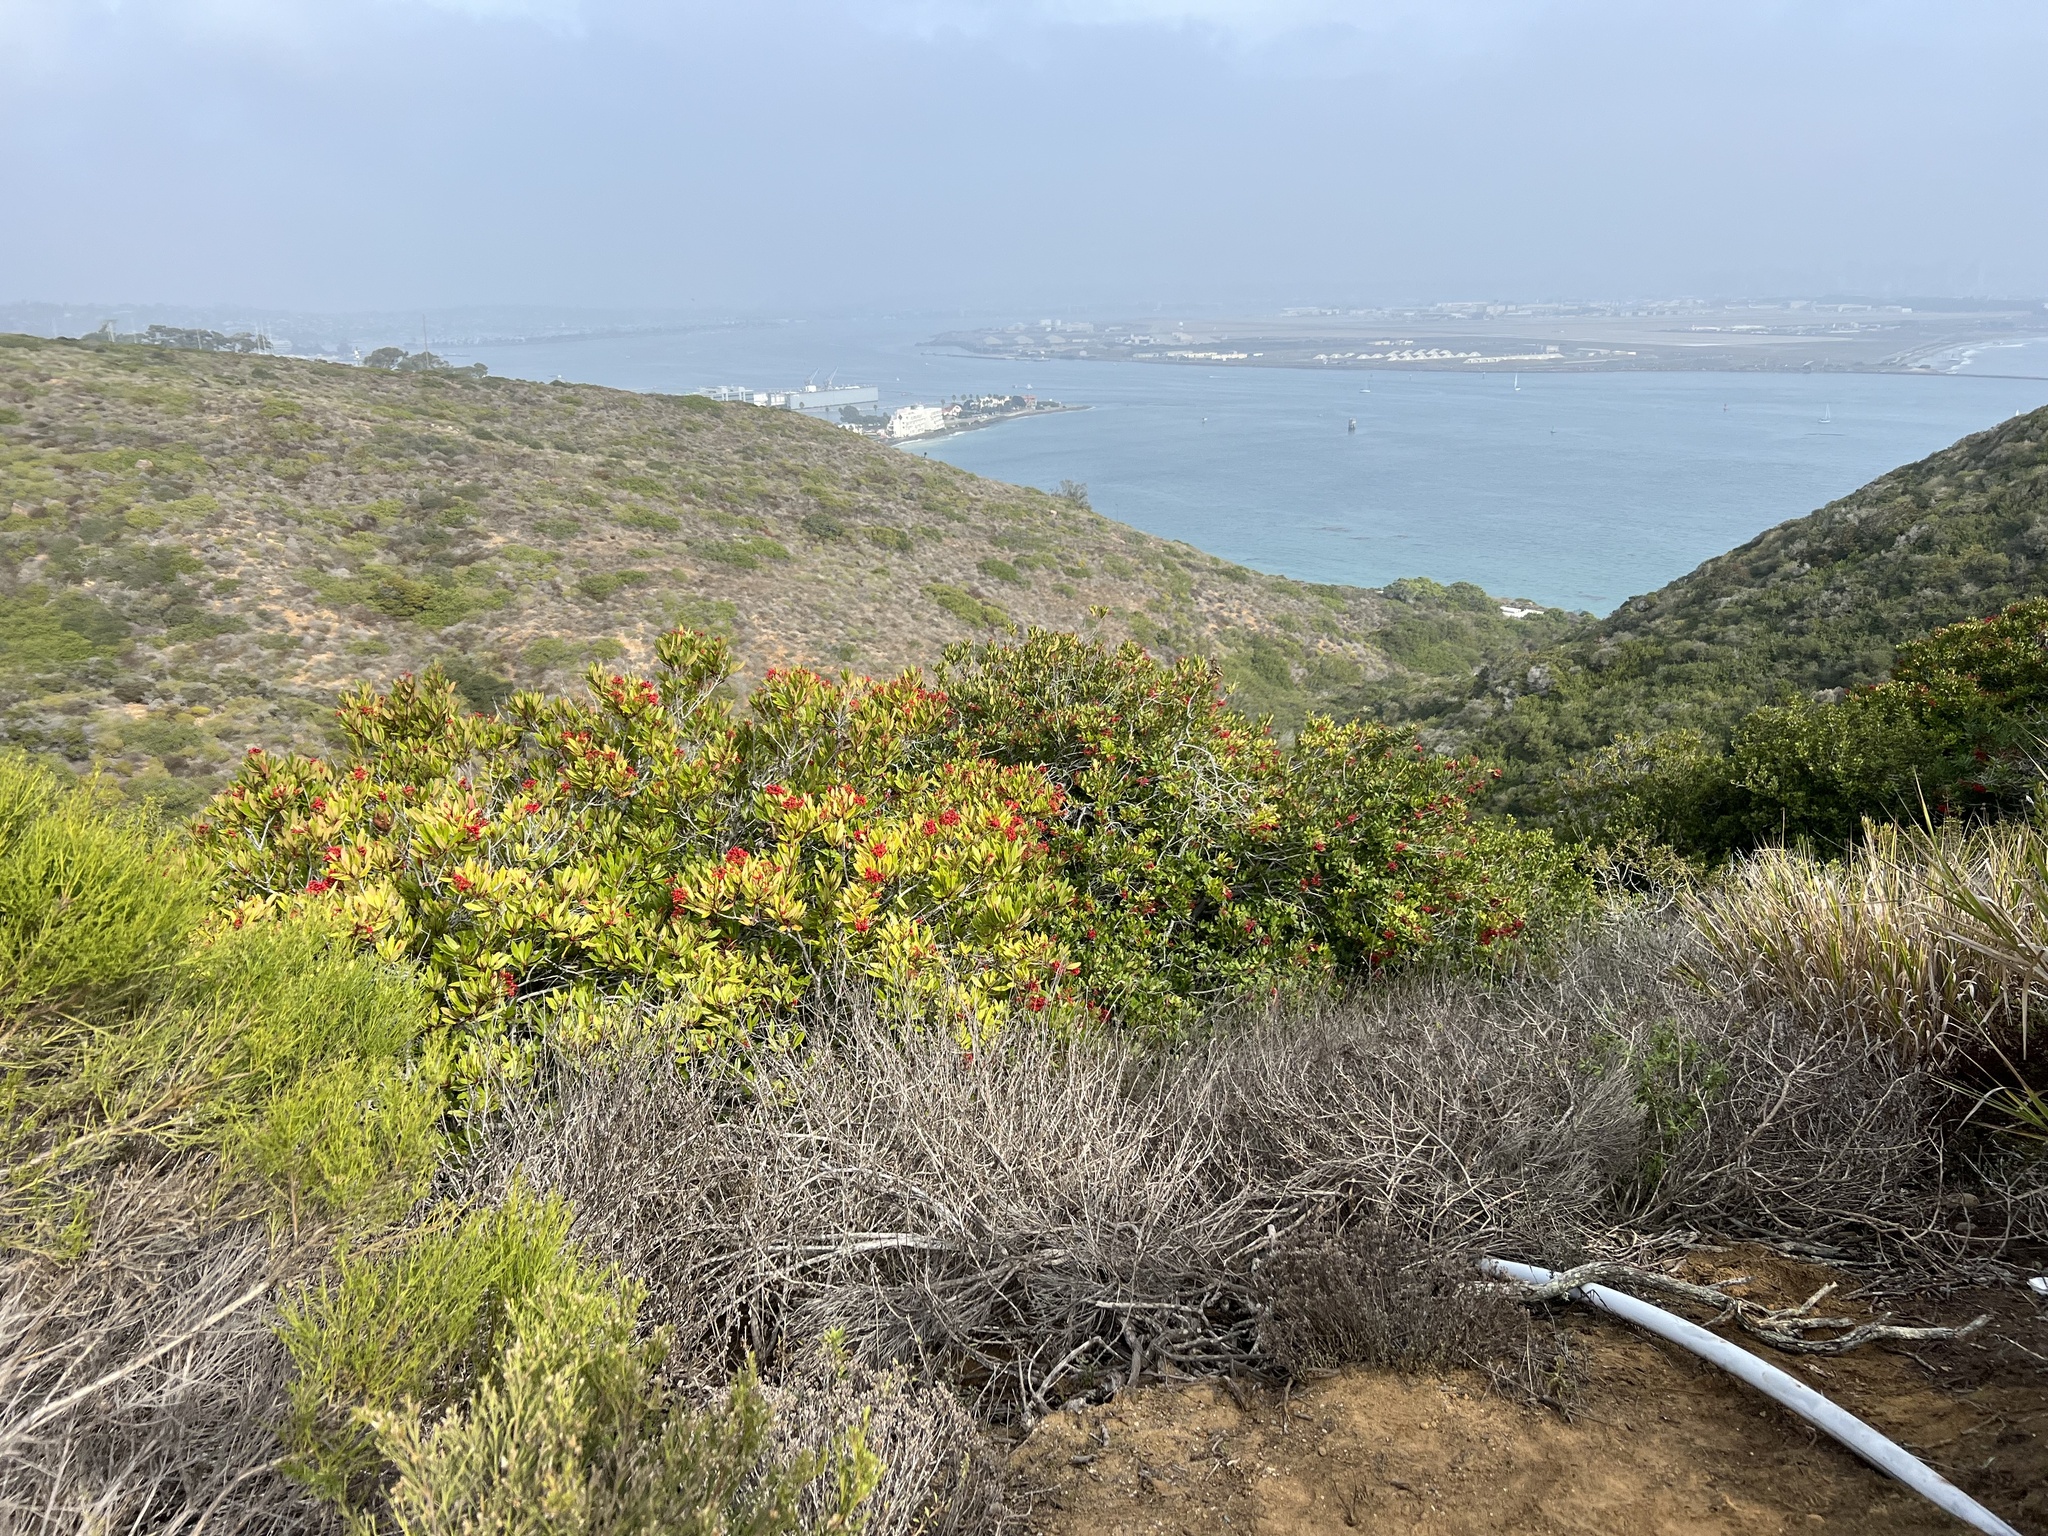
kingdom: Plantae
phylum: Tracheophyta
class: Magnoliopsida
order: Rosales
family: Rosaceae
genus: Heteromeles
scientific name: Heteromeles arbutifolia
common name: California-holly
